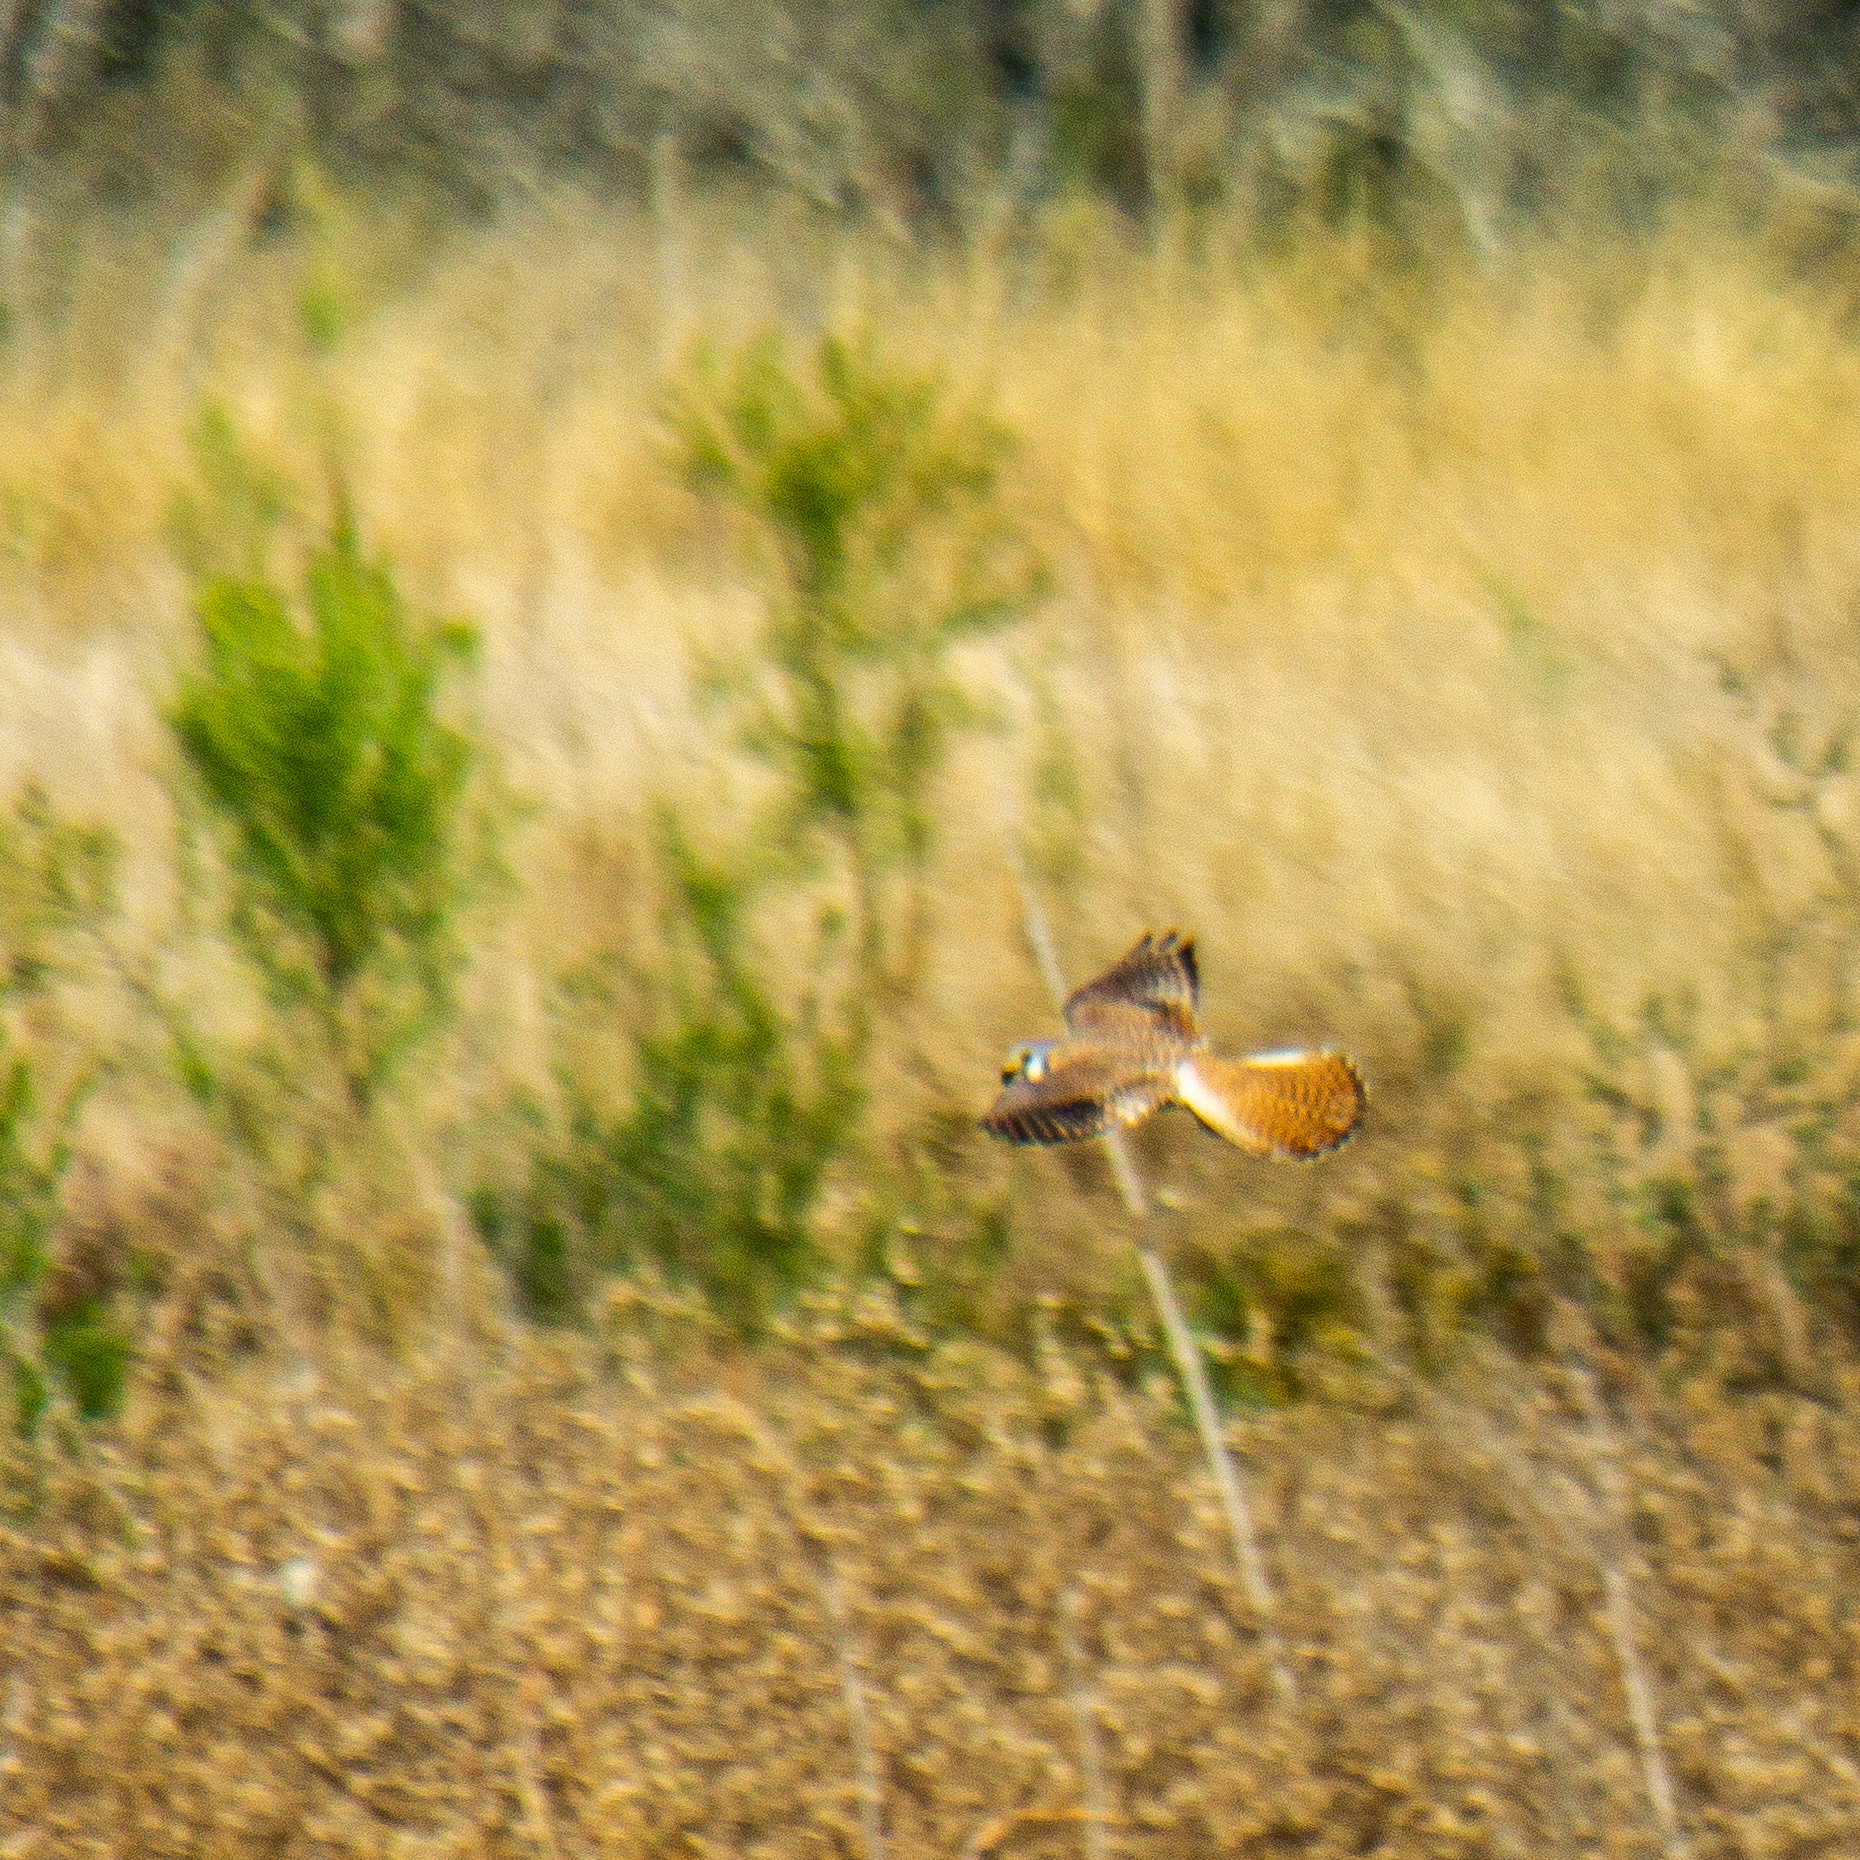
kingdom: Animalia
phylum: Chordata
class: Aves
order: Falconiformes
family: Falconidae
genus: Falco
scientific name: Falco sparverius
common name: American kestrel
